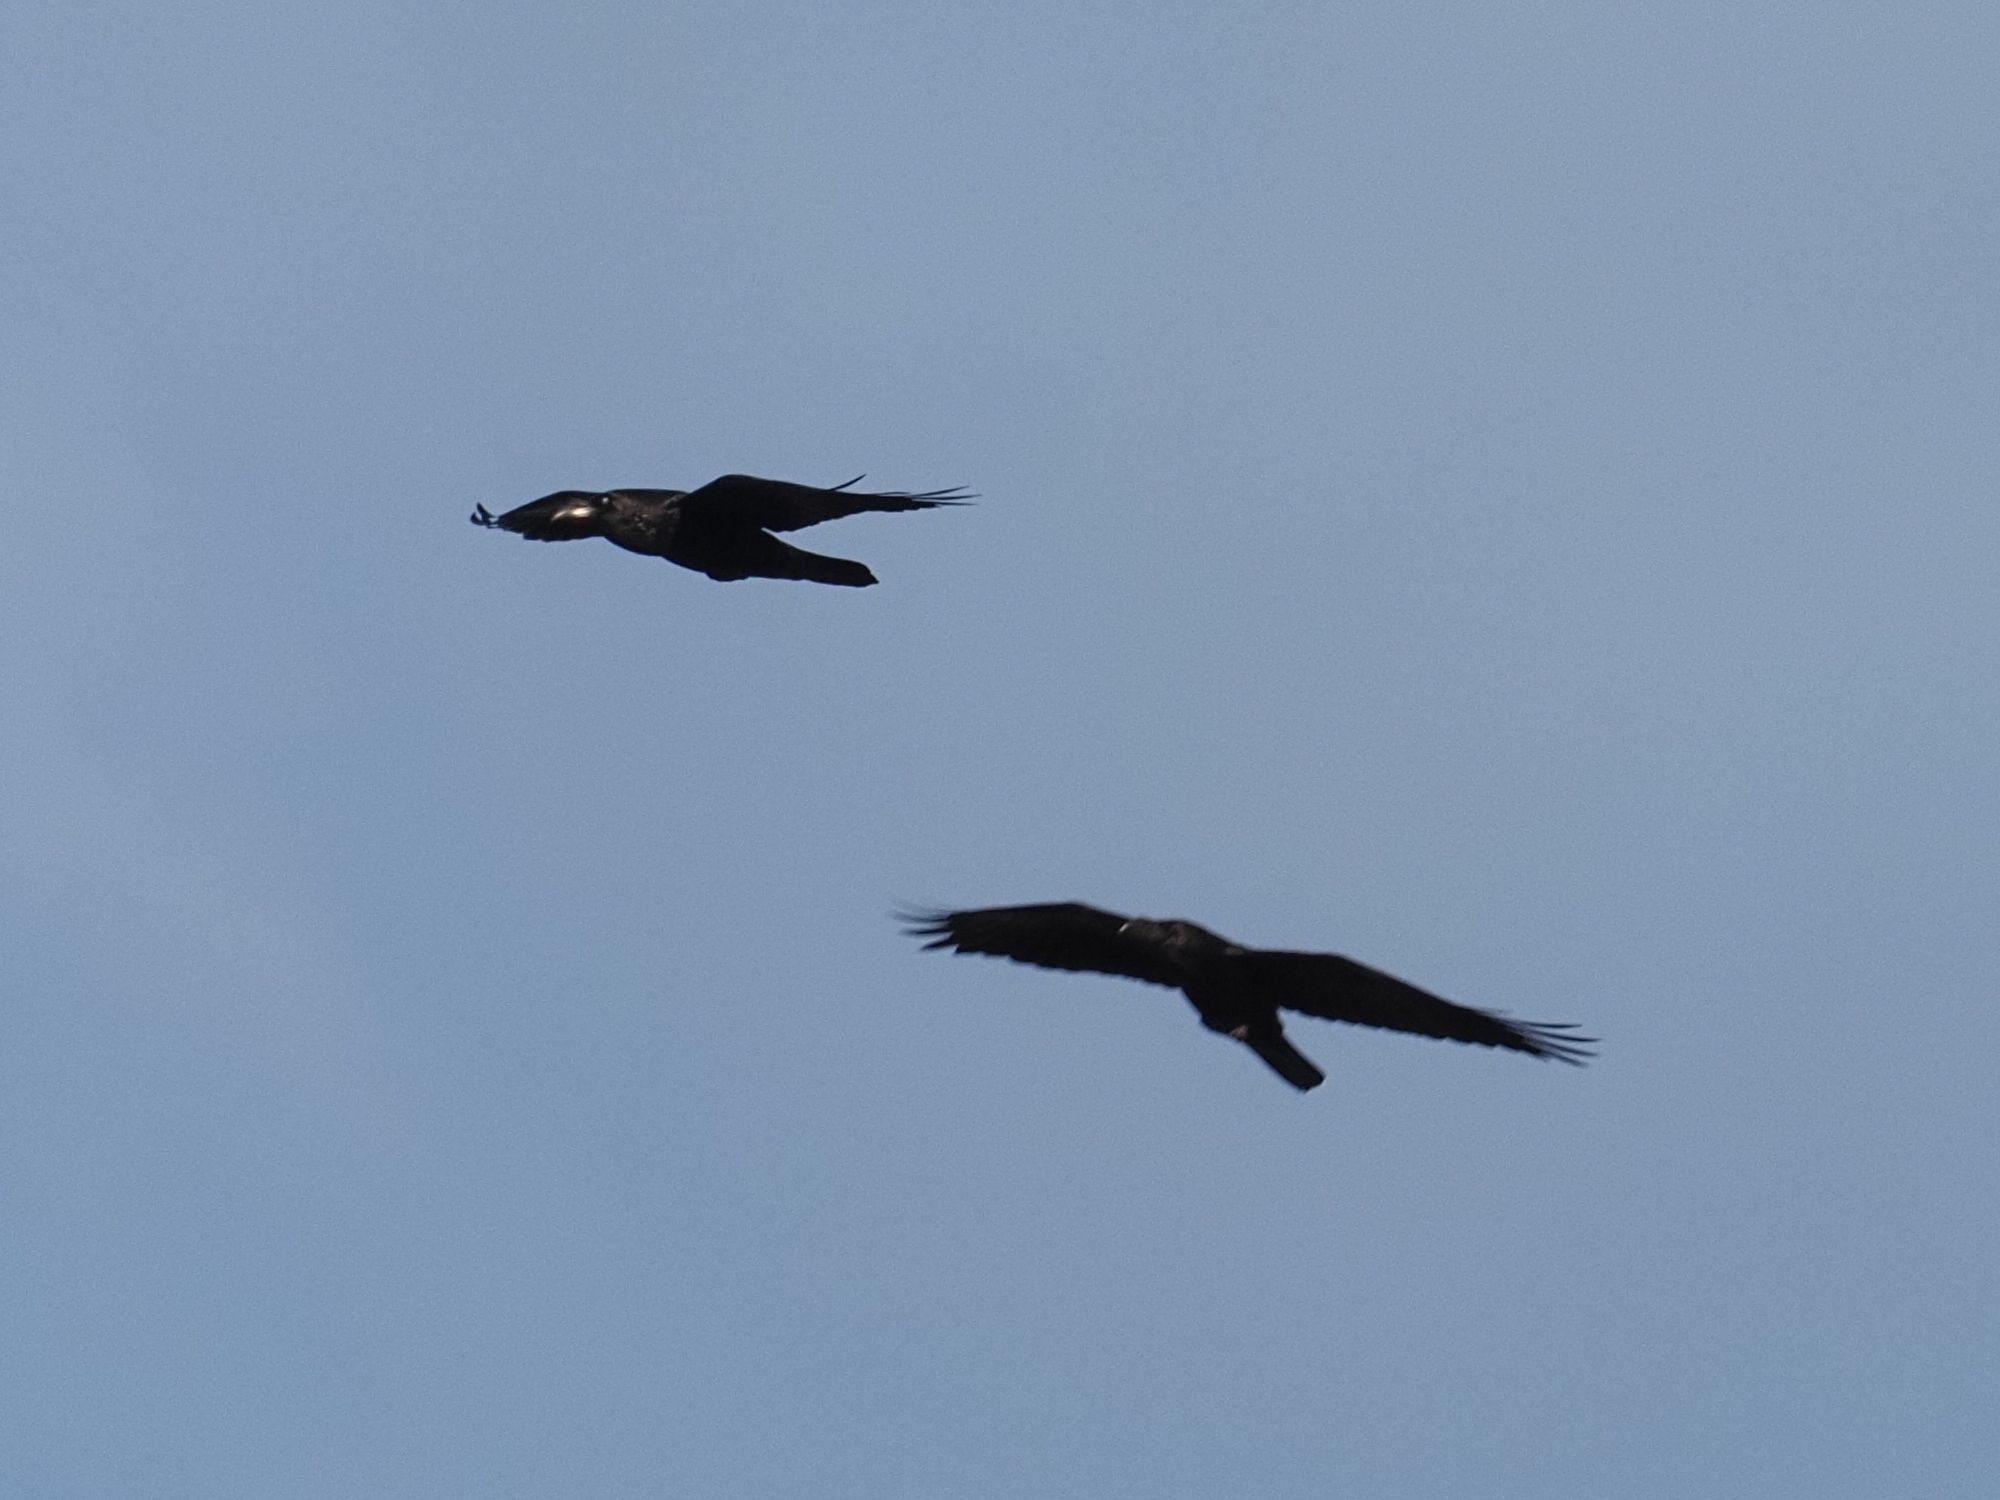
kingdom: Animalia
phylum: Chordata
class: Aves
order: Passeriformes
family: Corvidae
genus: Corvus
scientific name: Corvus corax
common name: Common raven
